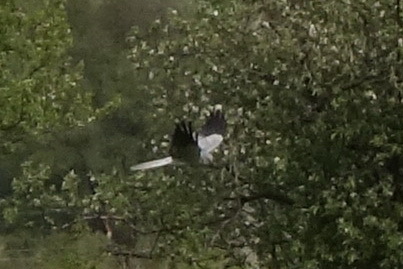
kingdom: Animalia
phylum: Chordata
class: Aves
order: Accipitriformes
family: Accipitridae
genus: Circus
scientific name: Circus pygargus
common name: Montagu's harrier
